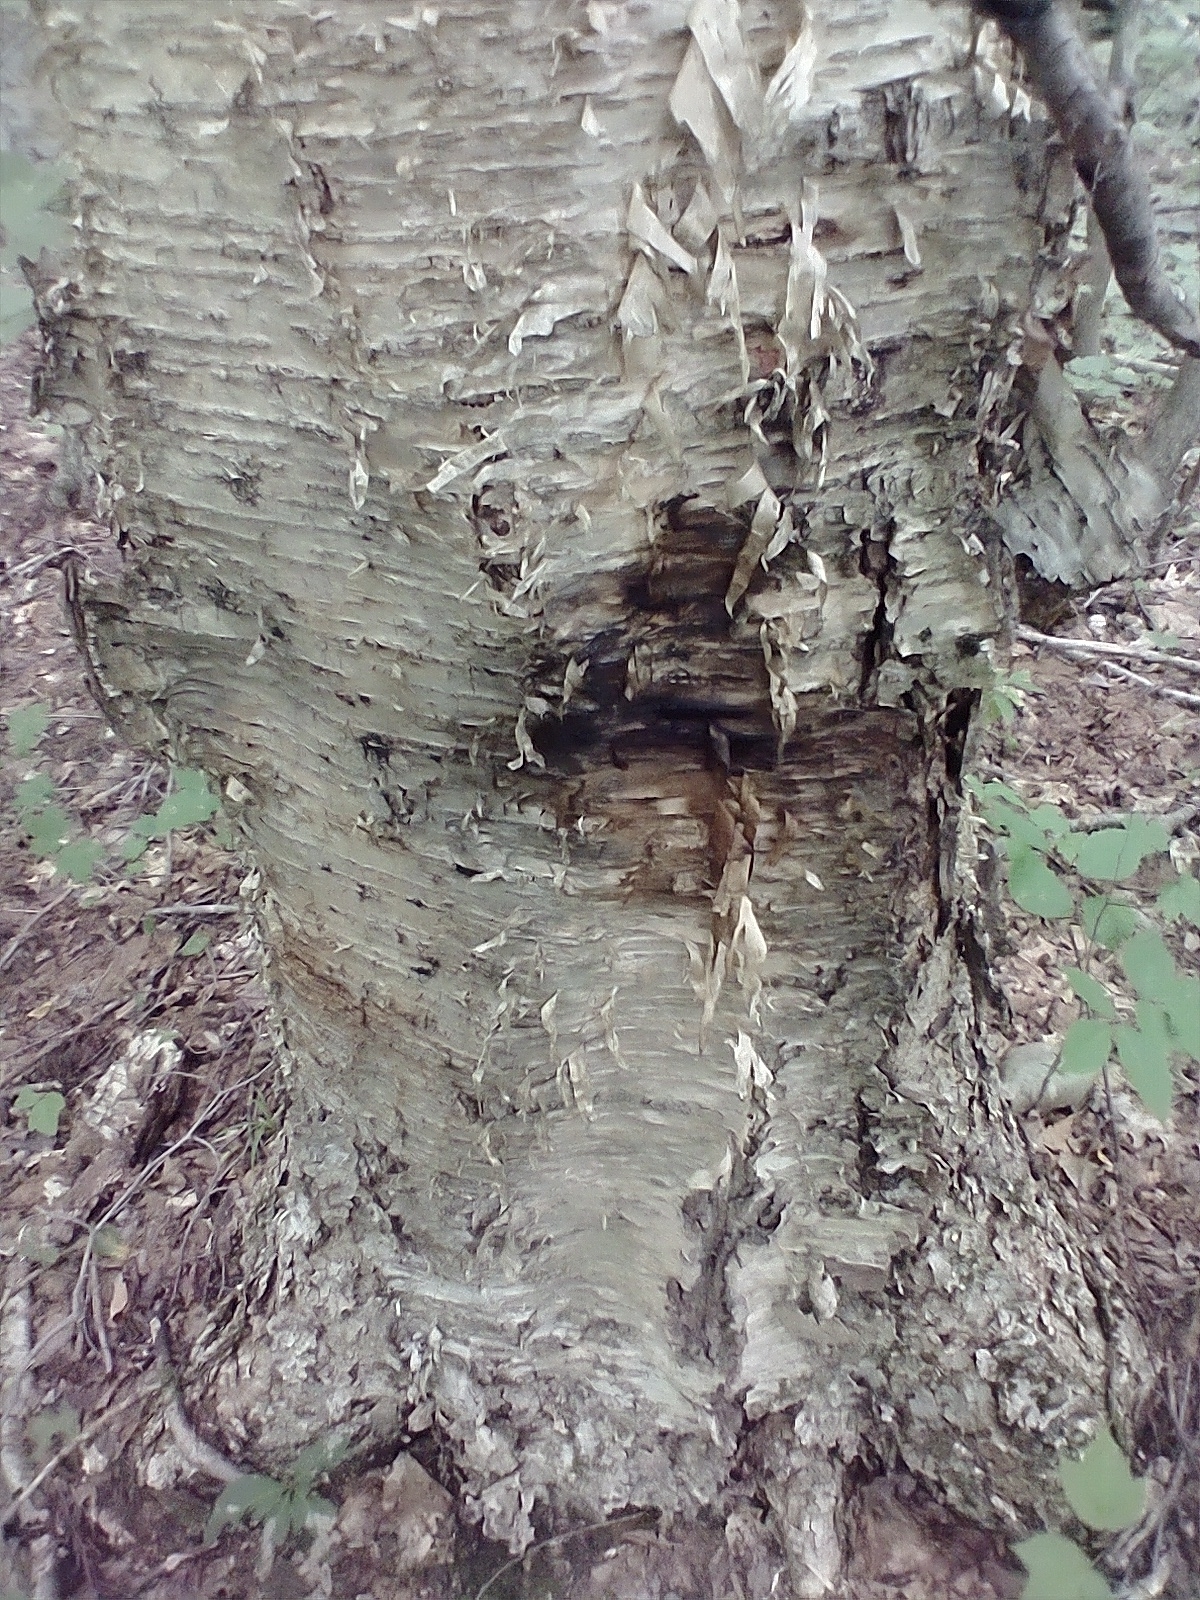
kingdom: Plantae
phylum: Tracheophyta
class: Magnoliopsida
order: Fagales
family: Betulaceae
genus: Betula
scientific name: Betula alleghaniensis
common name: Yellow birch
